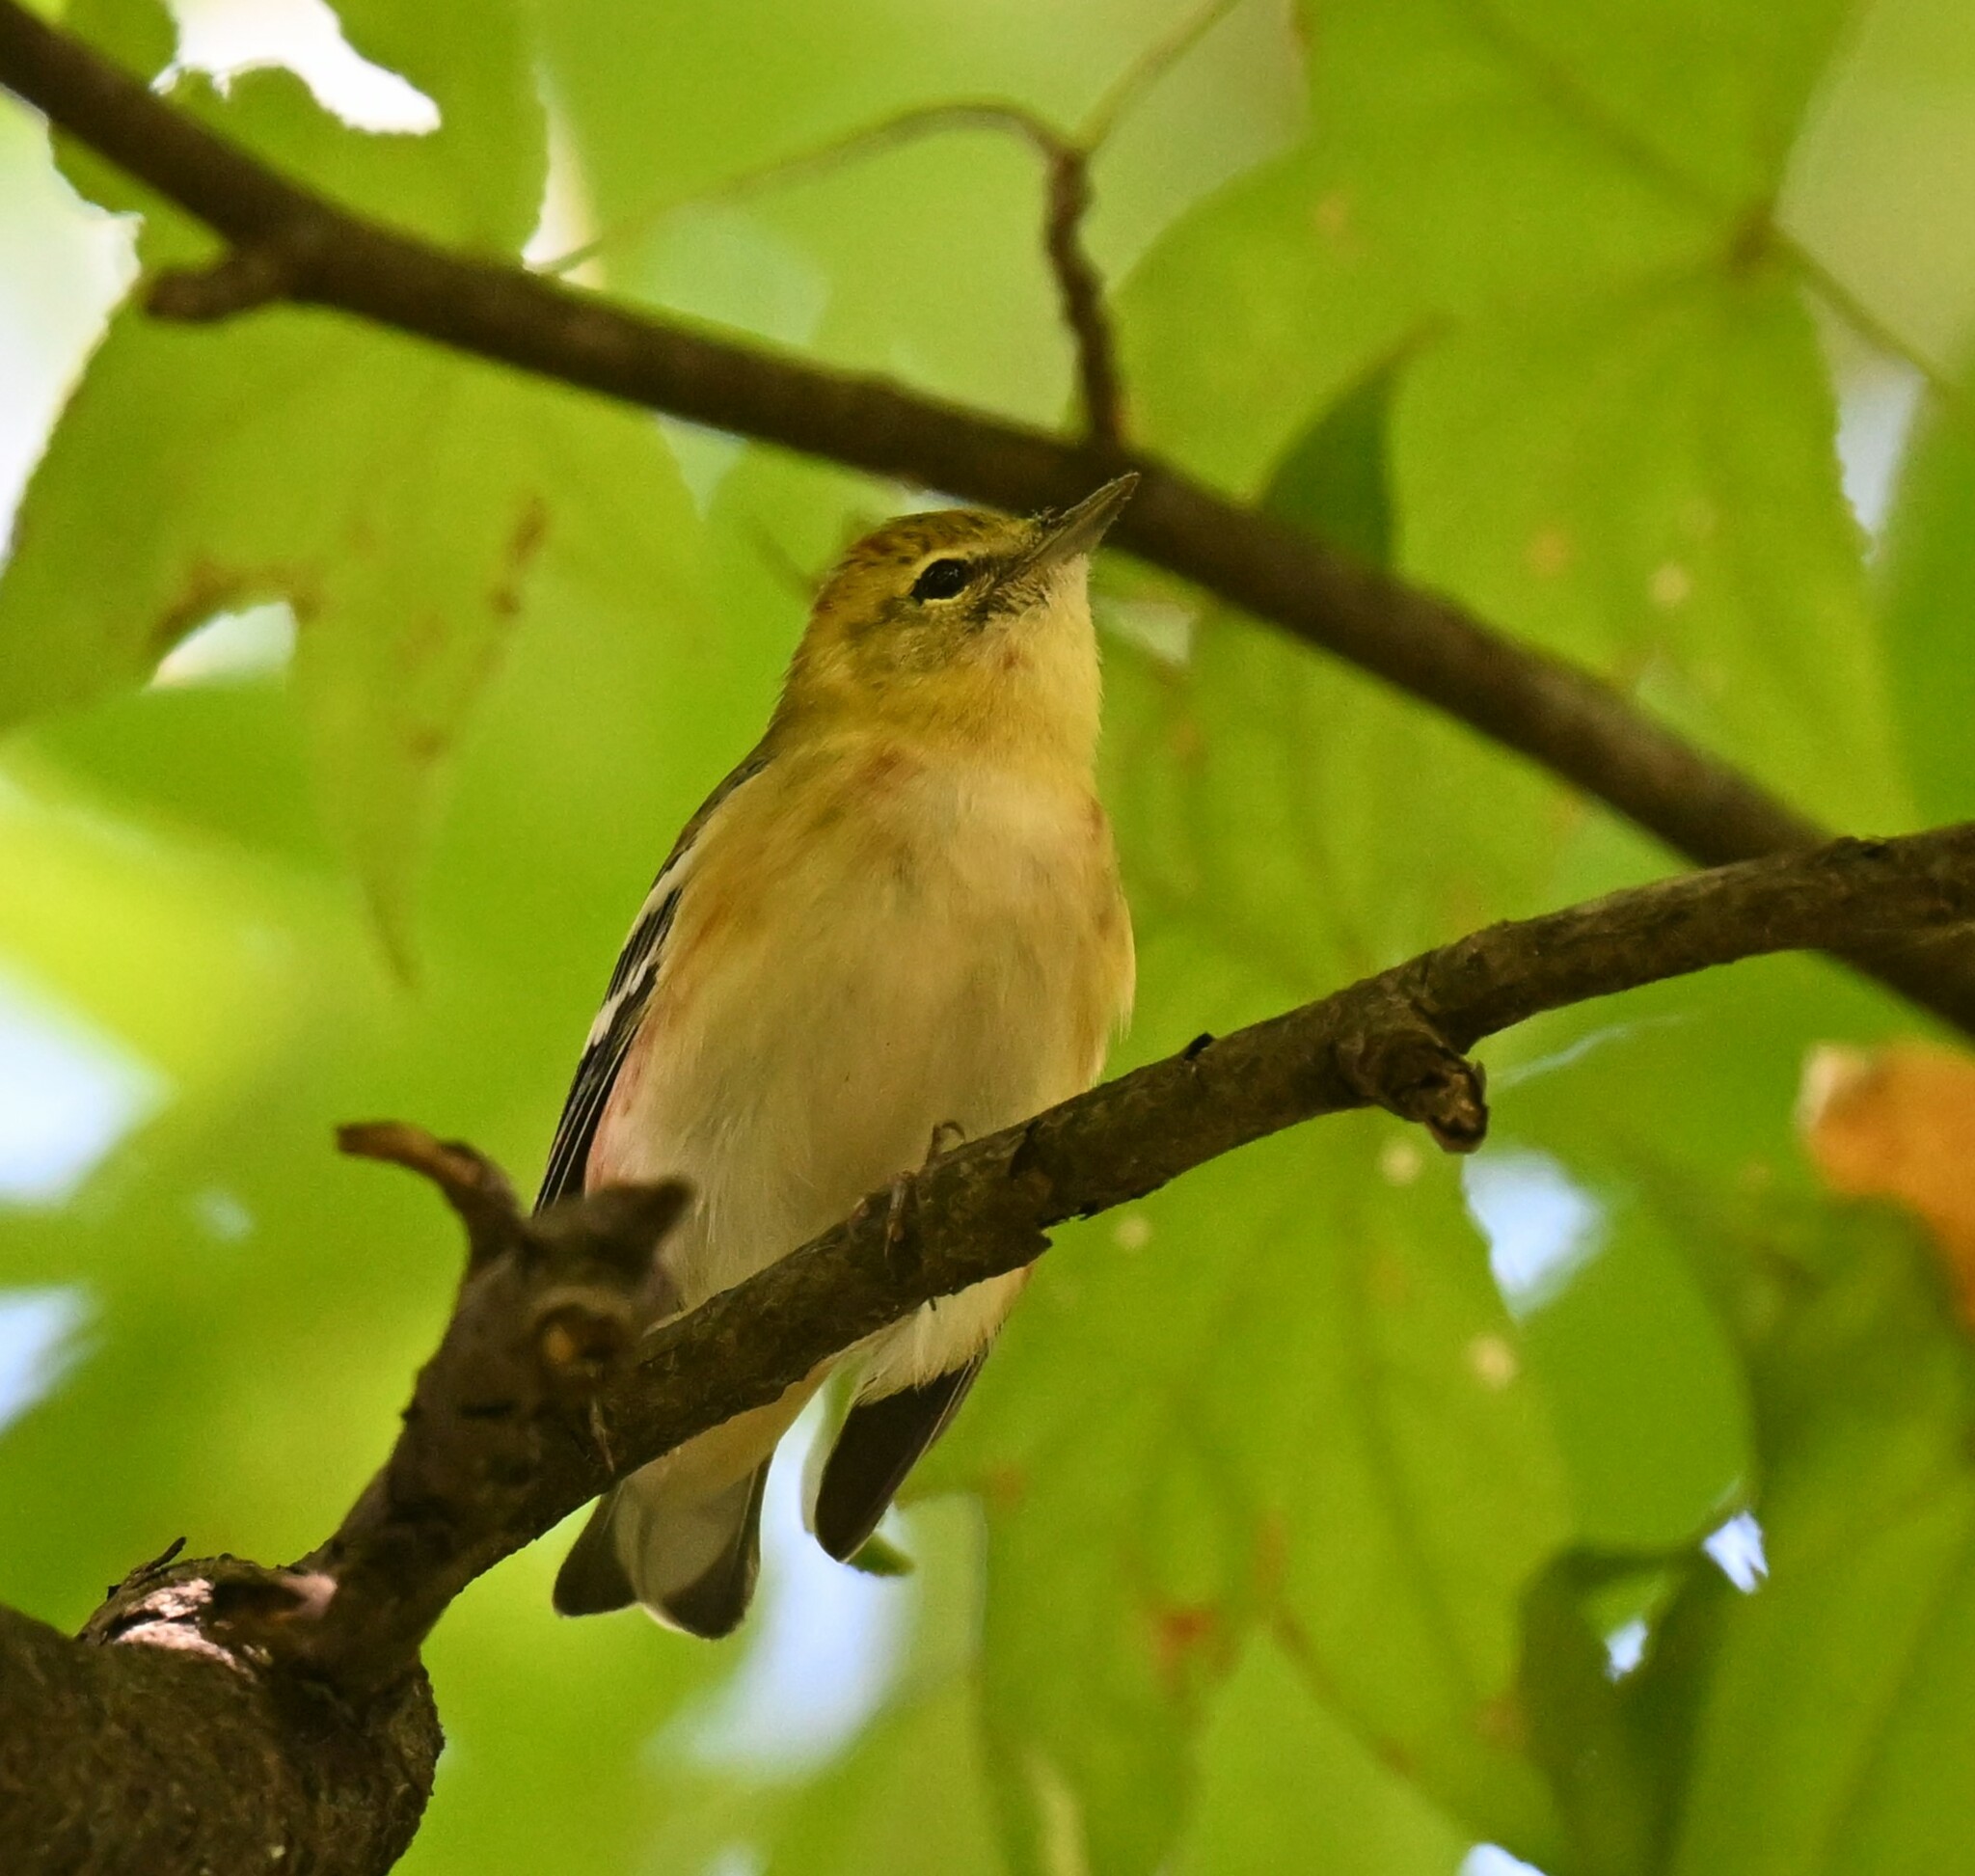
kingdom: Animalia
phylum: Chordata
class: Aves
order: Passeriformes
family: Parulidae
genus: Setophaga
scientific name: Setophaga castanea
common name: Bay-breasted warbler
